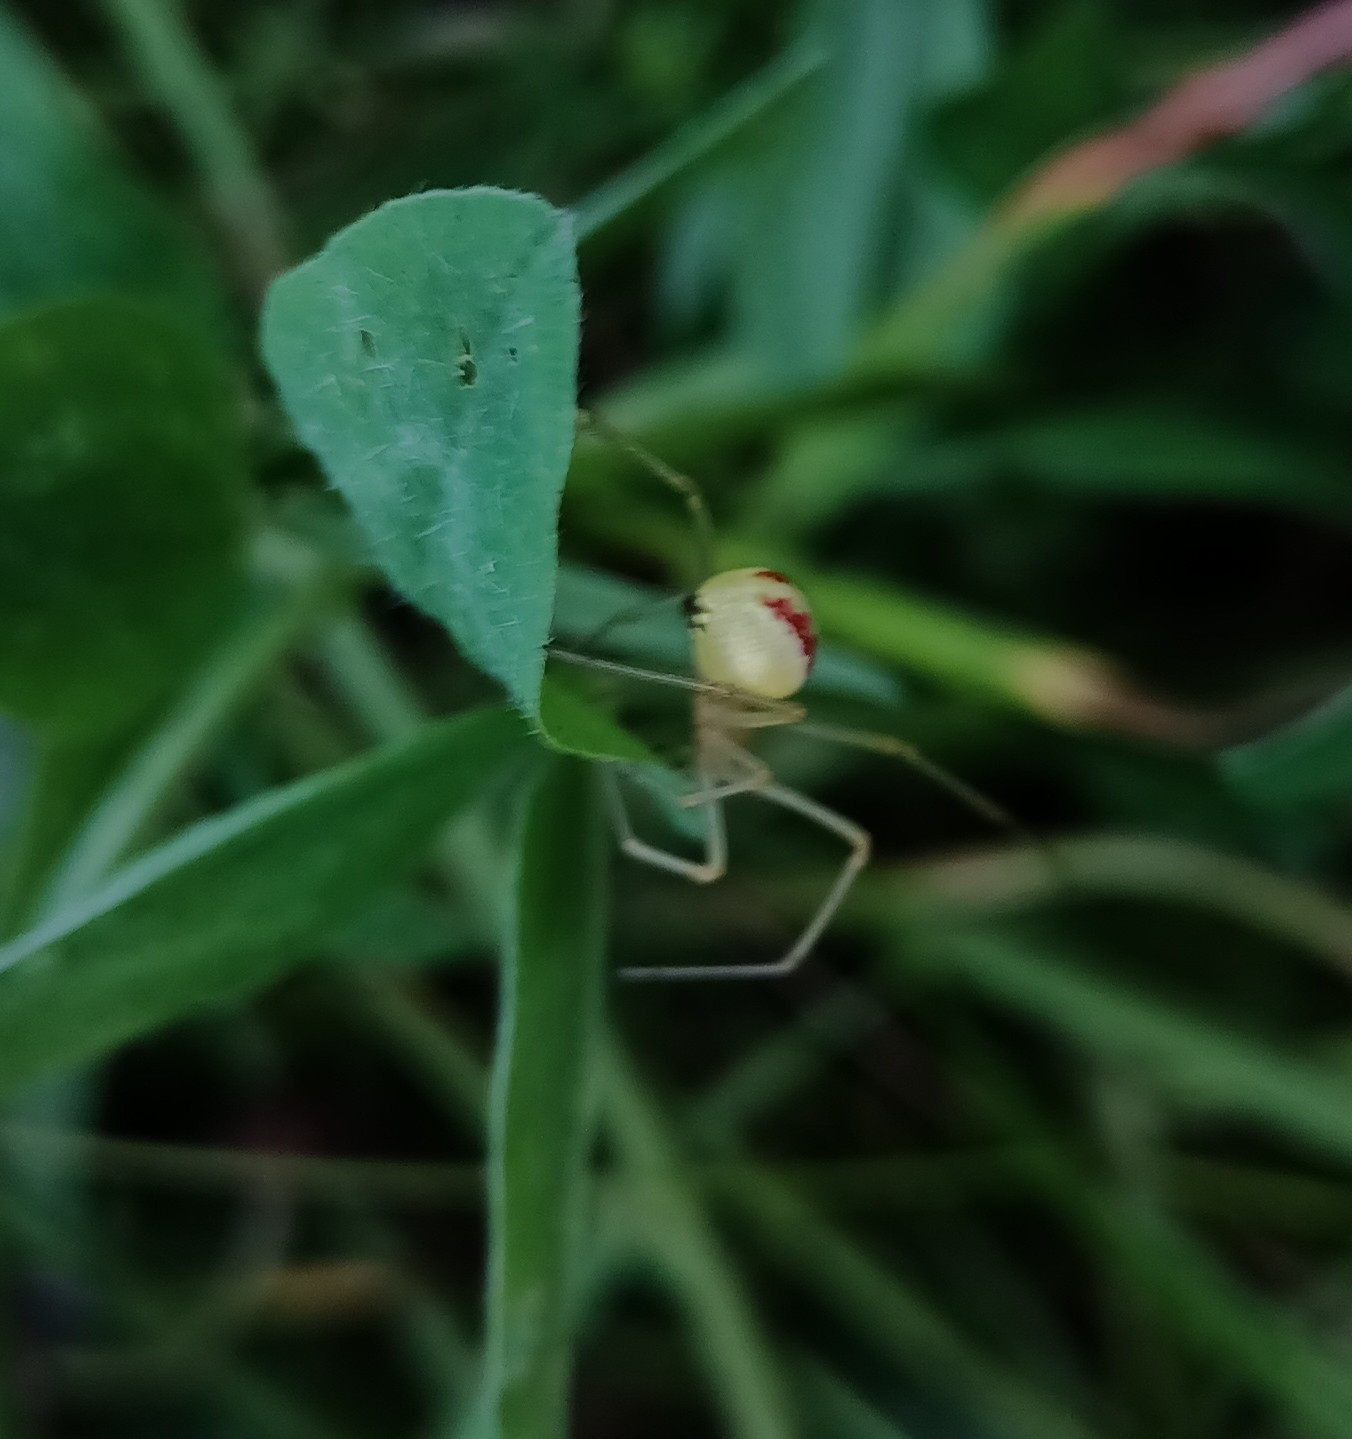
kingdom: Animalia
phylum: Arthropoda
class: Arachnida
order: Araneae
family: Theridiidae
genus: Enoplognatha
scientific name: Enoplognatha ovata
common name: Common candy-striped spider
